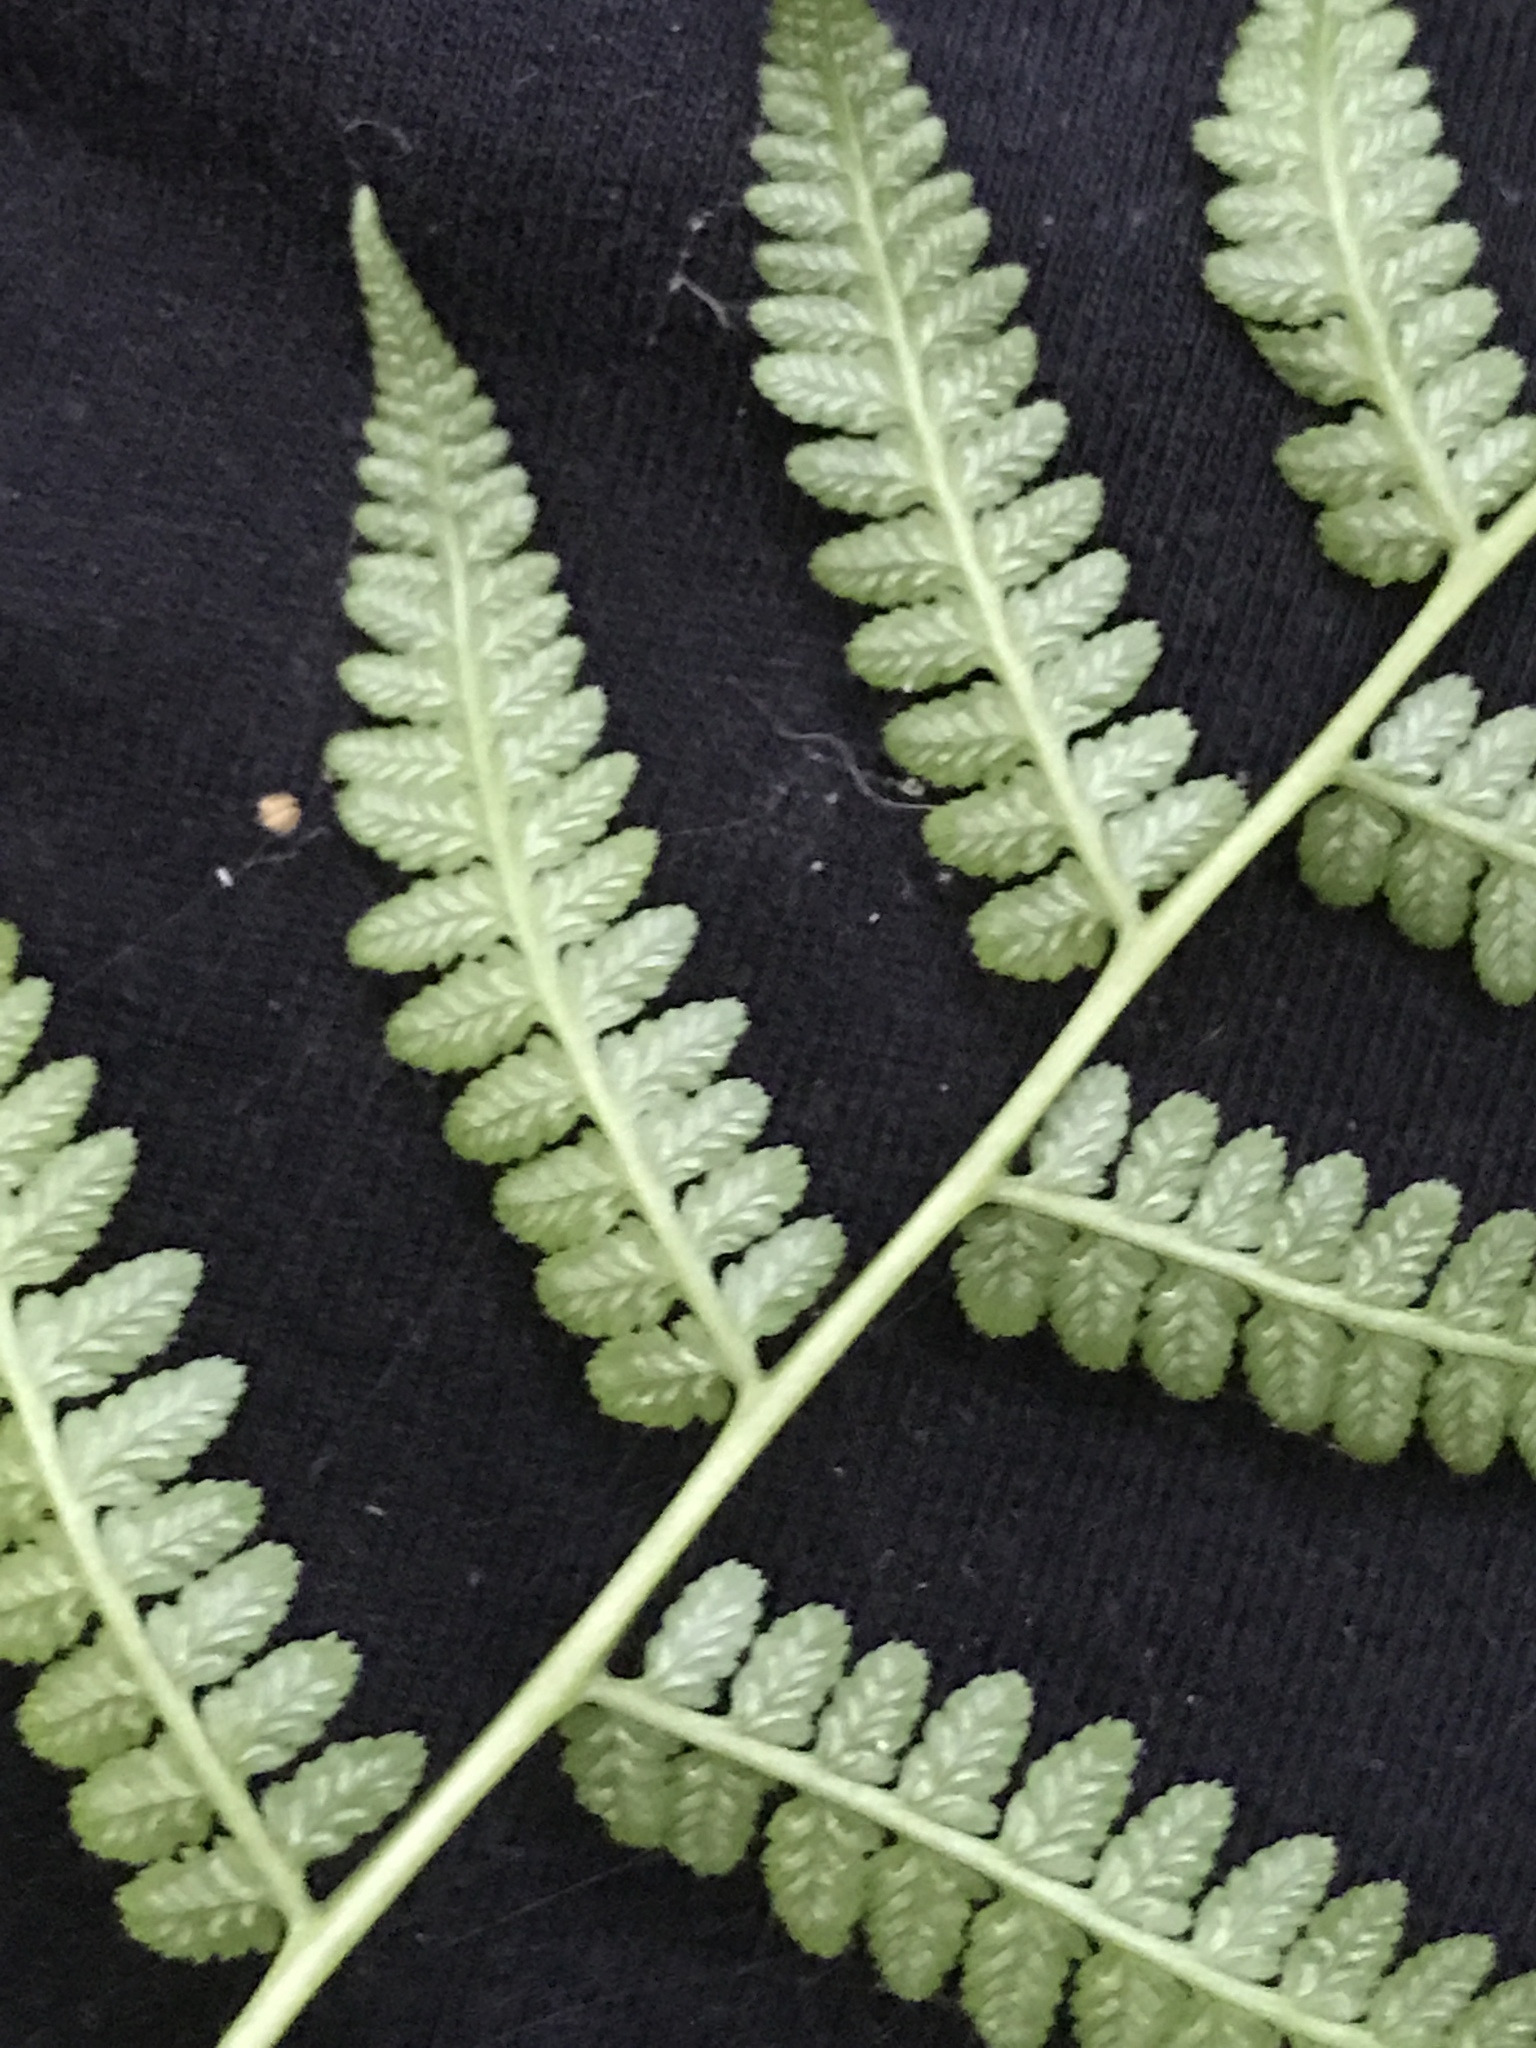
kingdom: Plantae
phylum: Tracheophyta
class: Polypodiopsida
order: Polypodiales
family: Athyriaceae
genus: Athyrium
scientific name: Athyrium asplenioides
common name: Southern lady fern
